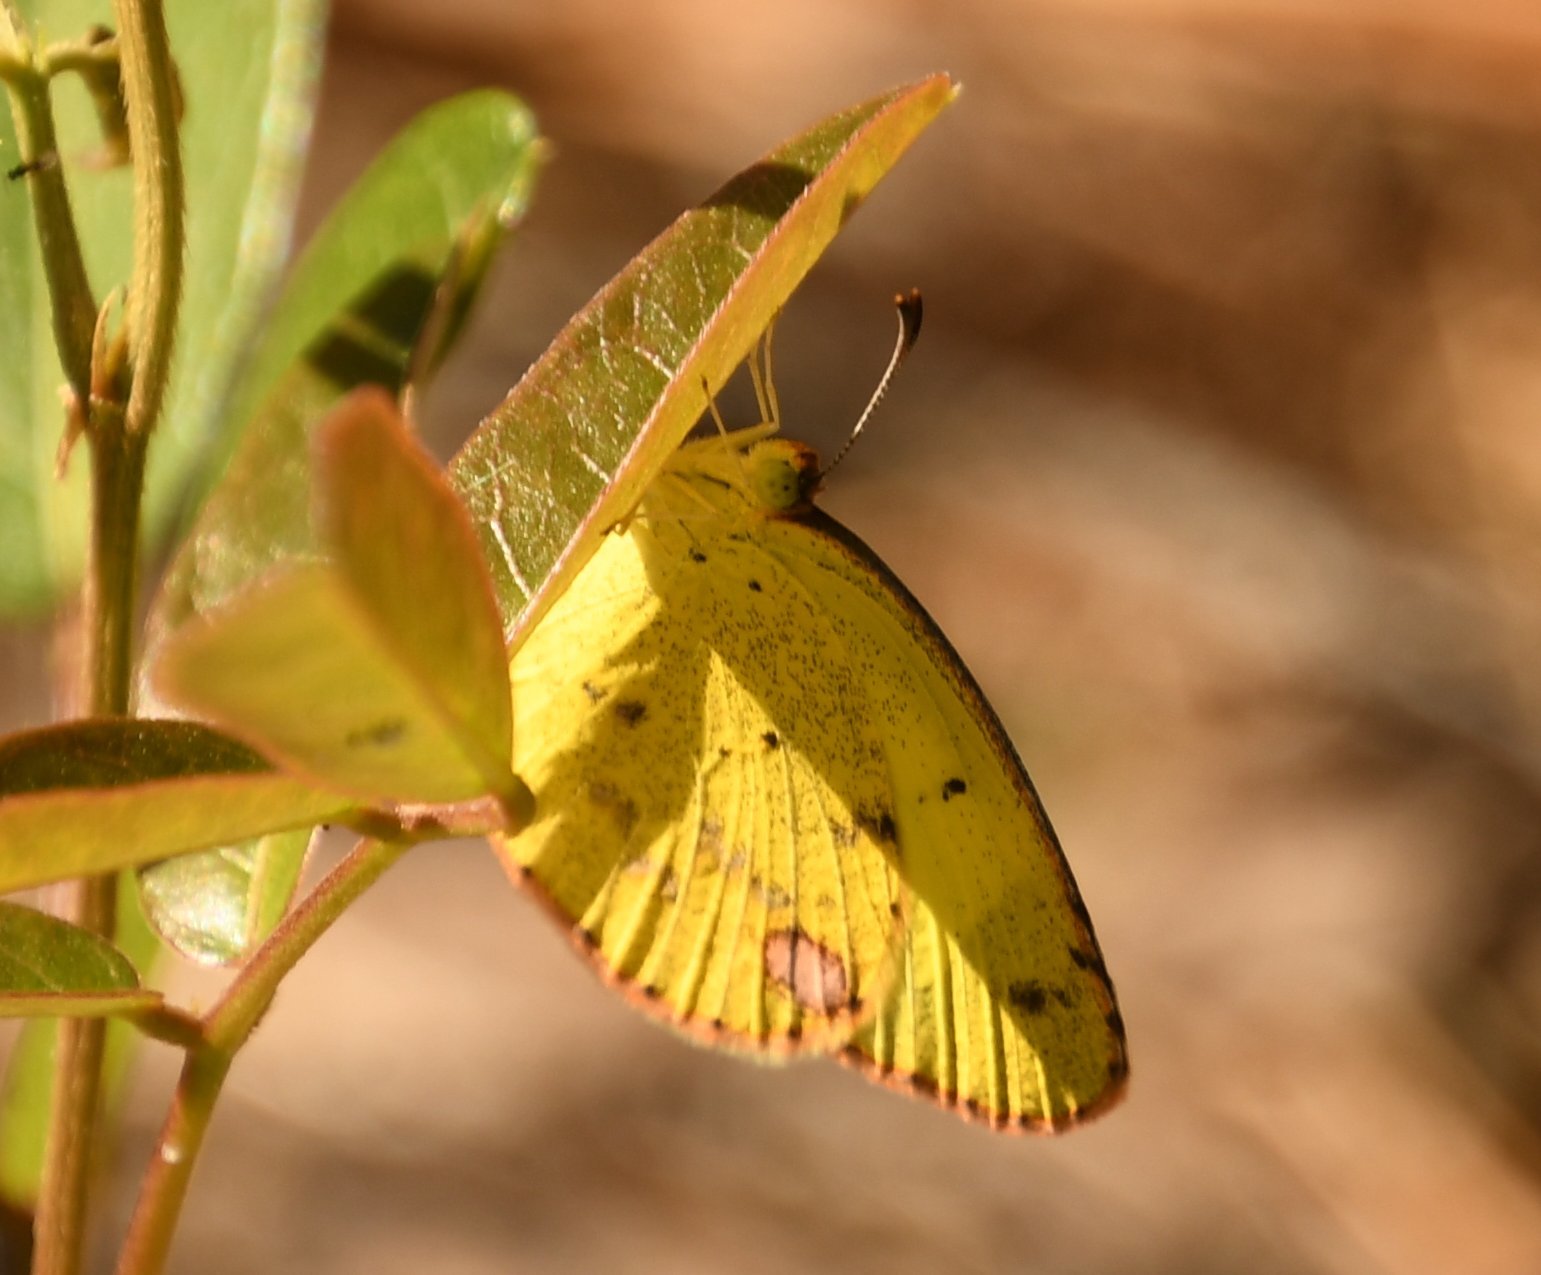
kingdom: Animalia
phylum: Arthropoda
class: Insecta
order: Lepidoptera
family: Pieridae
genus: Pyrisitia
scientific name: Pyrisitia lisa
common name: Little yellow
